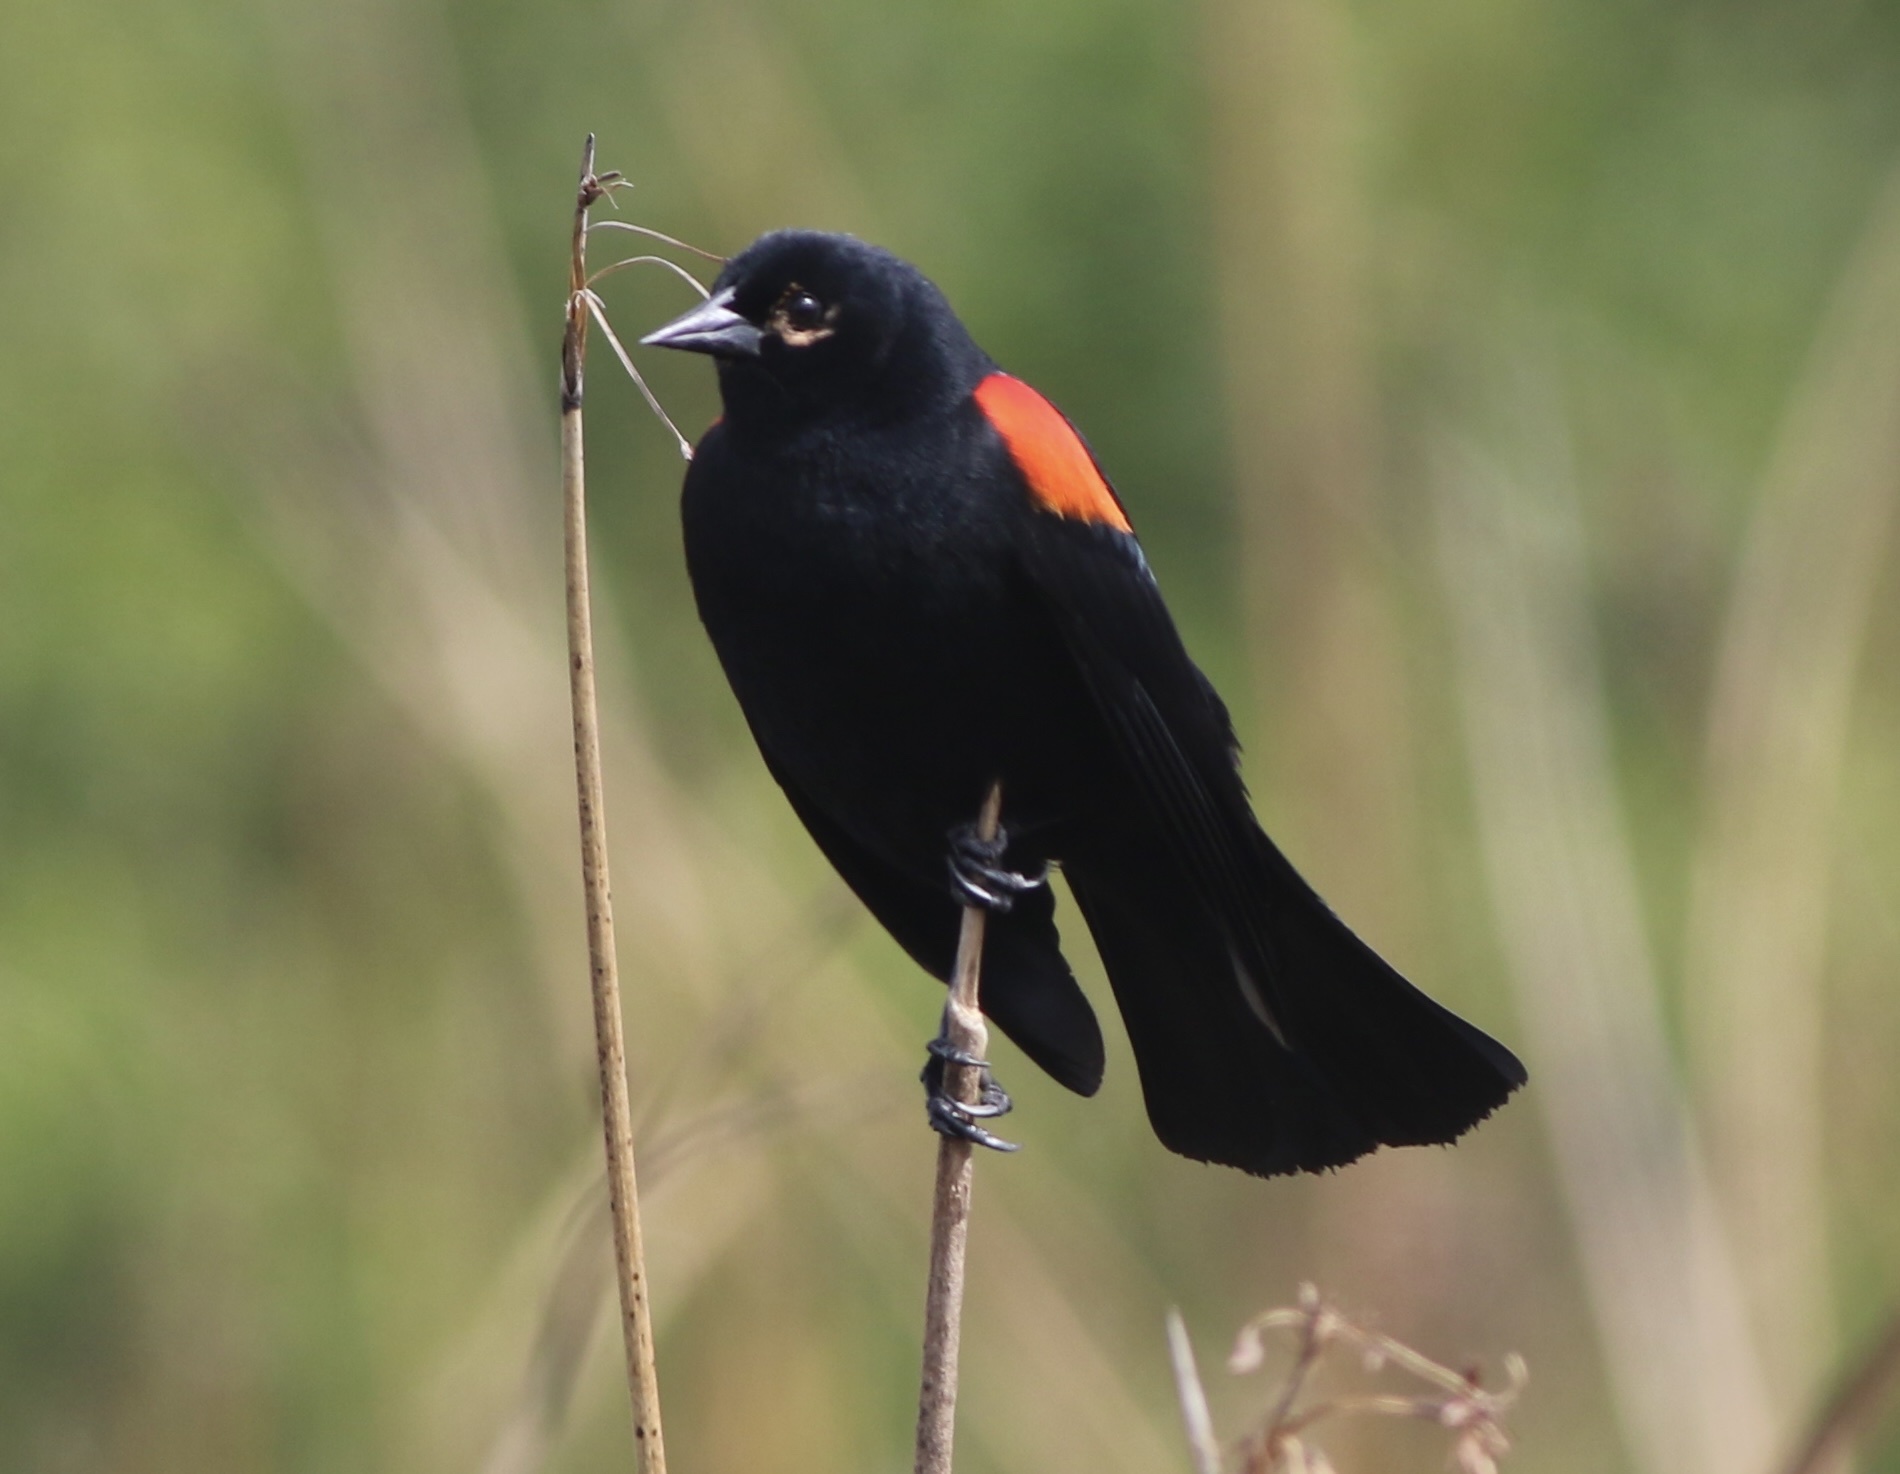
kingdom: Animalia
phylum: Chordata
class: Aves
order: Passeriformes
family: Icteridae
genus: Agelaius
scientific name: Agelaius phoeniceus
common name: Red-winged blackbird
